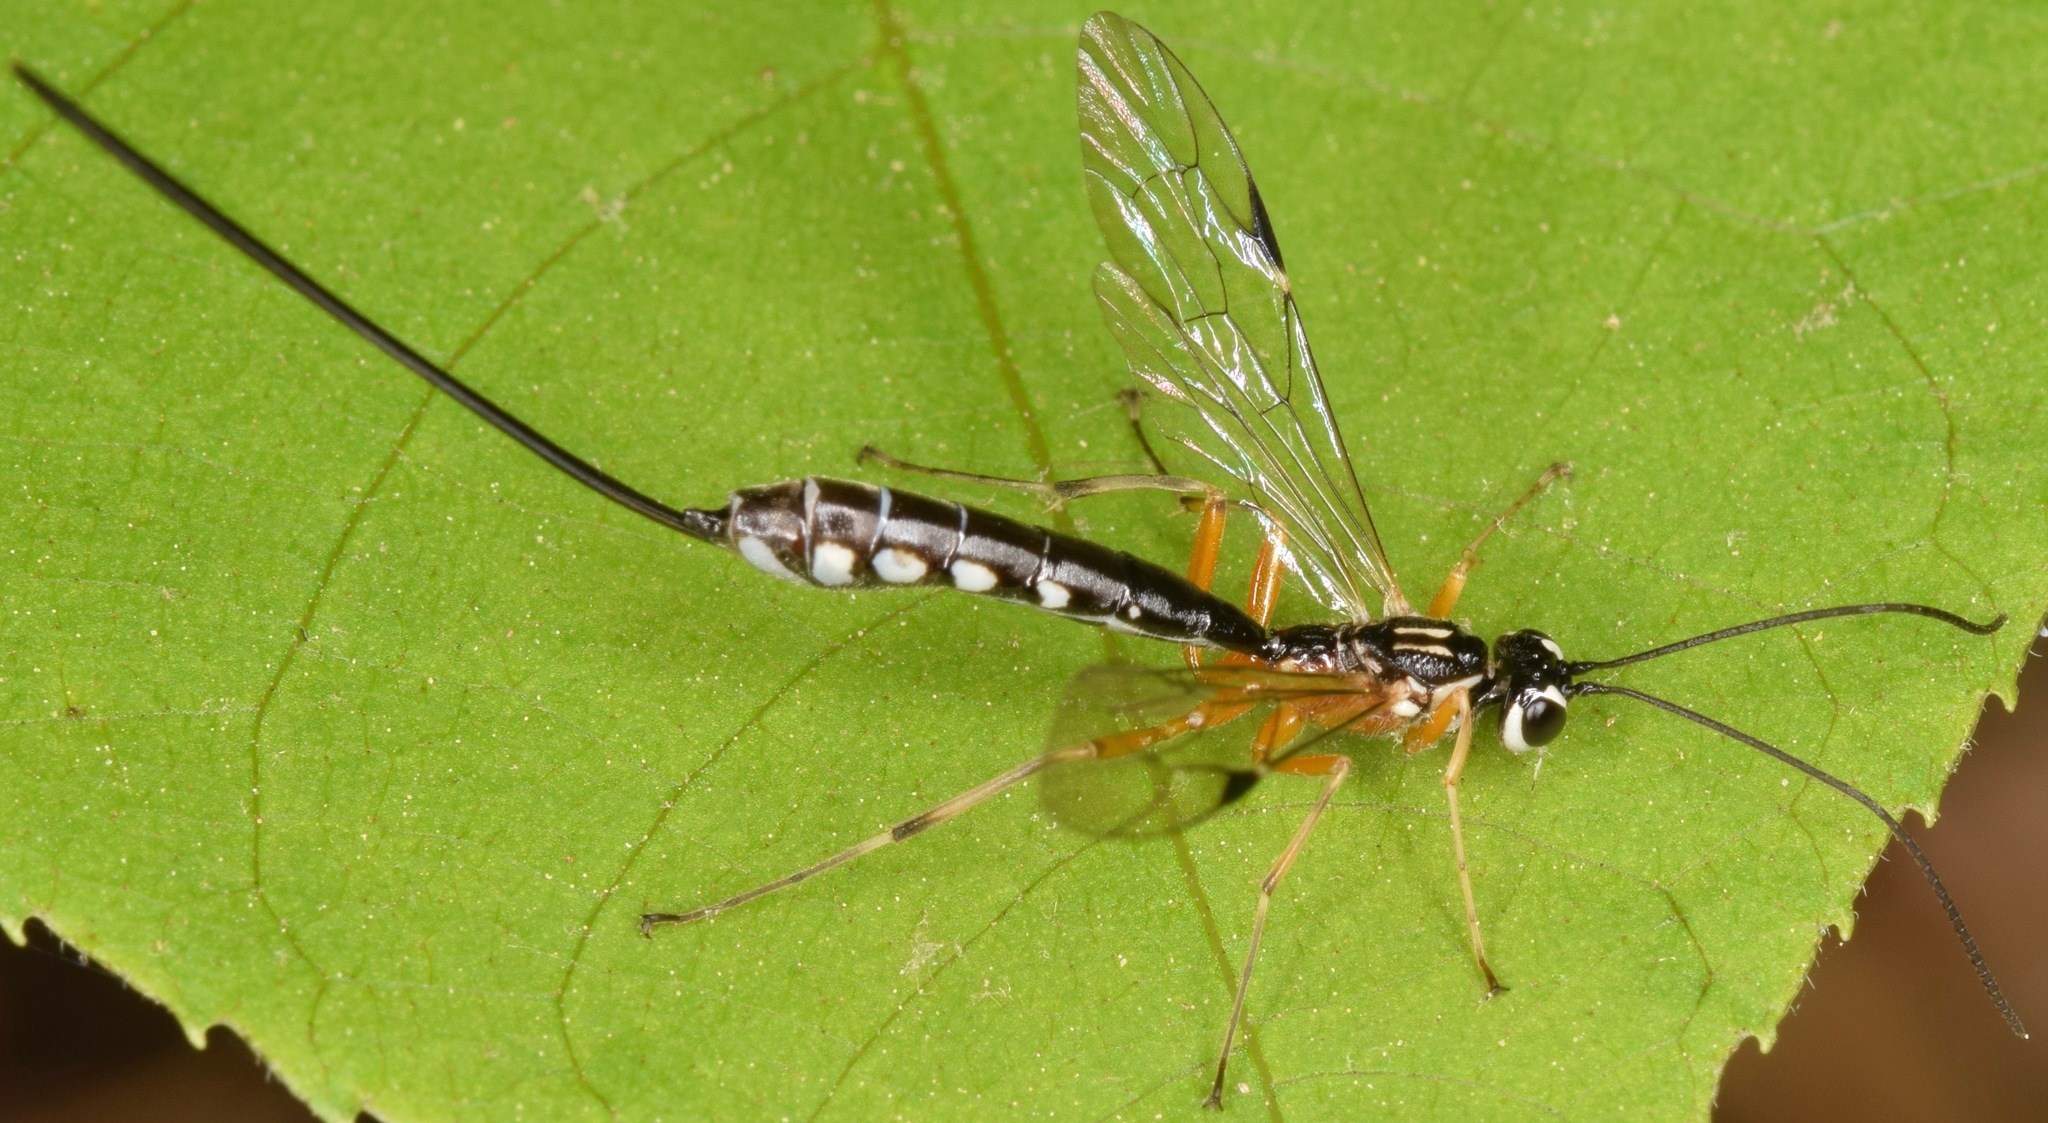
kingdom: Animalia
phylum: Arthropoda
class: Insecta
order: Hymenoptera
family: Ichneumonidae
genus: Rhyssella
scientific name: Rhyssella humida
